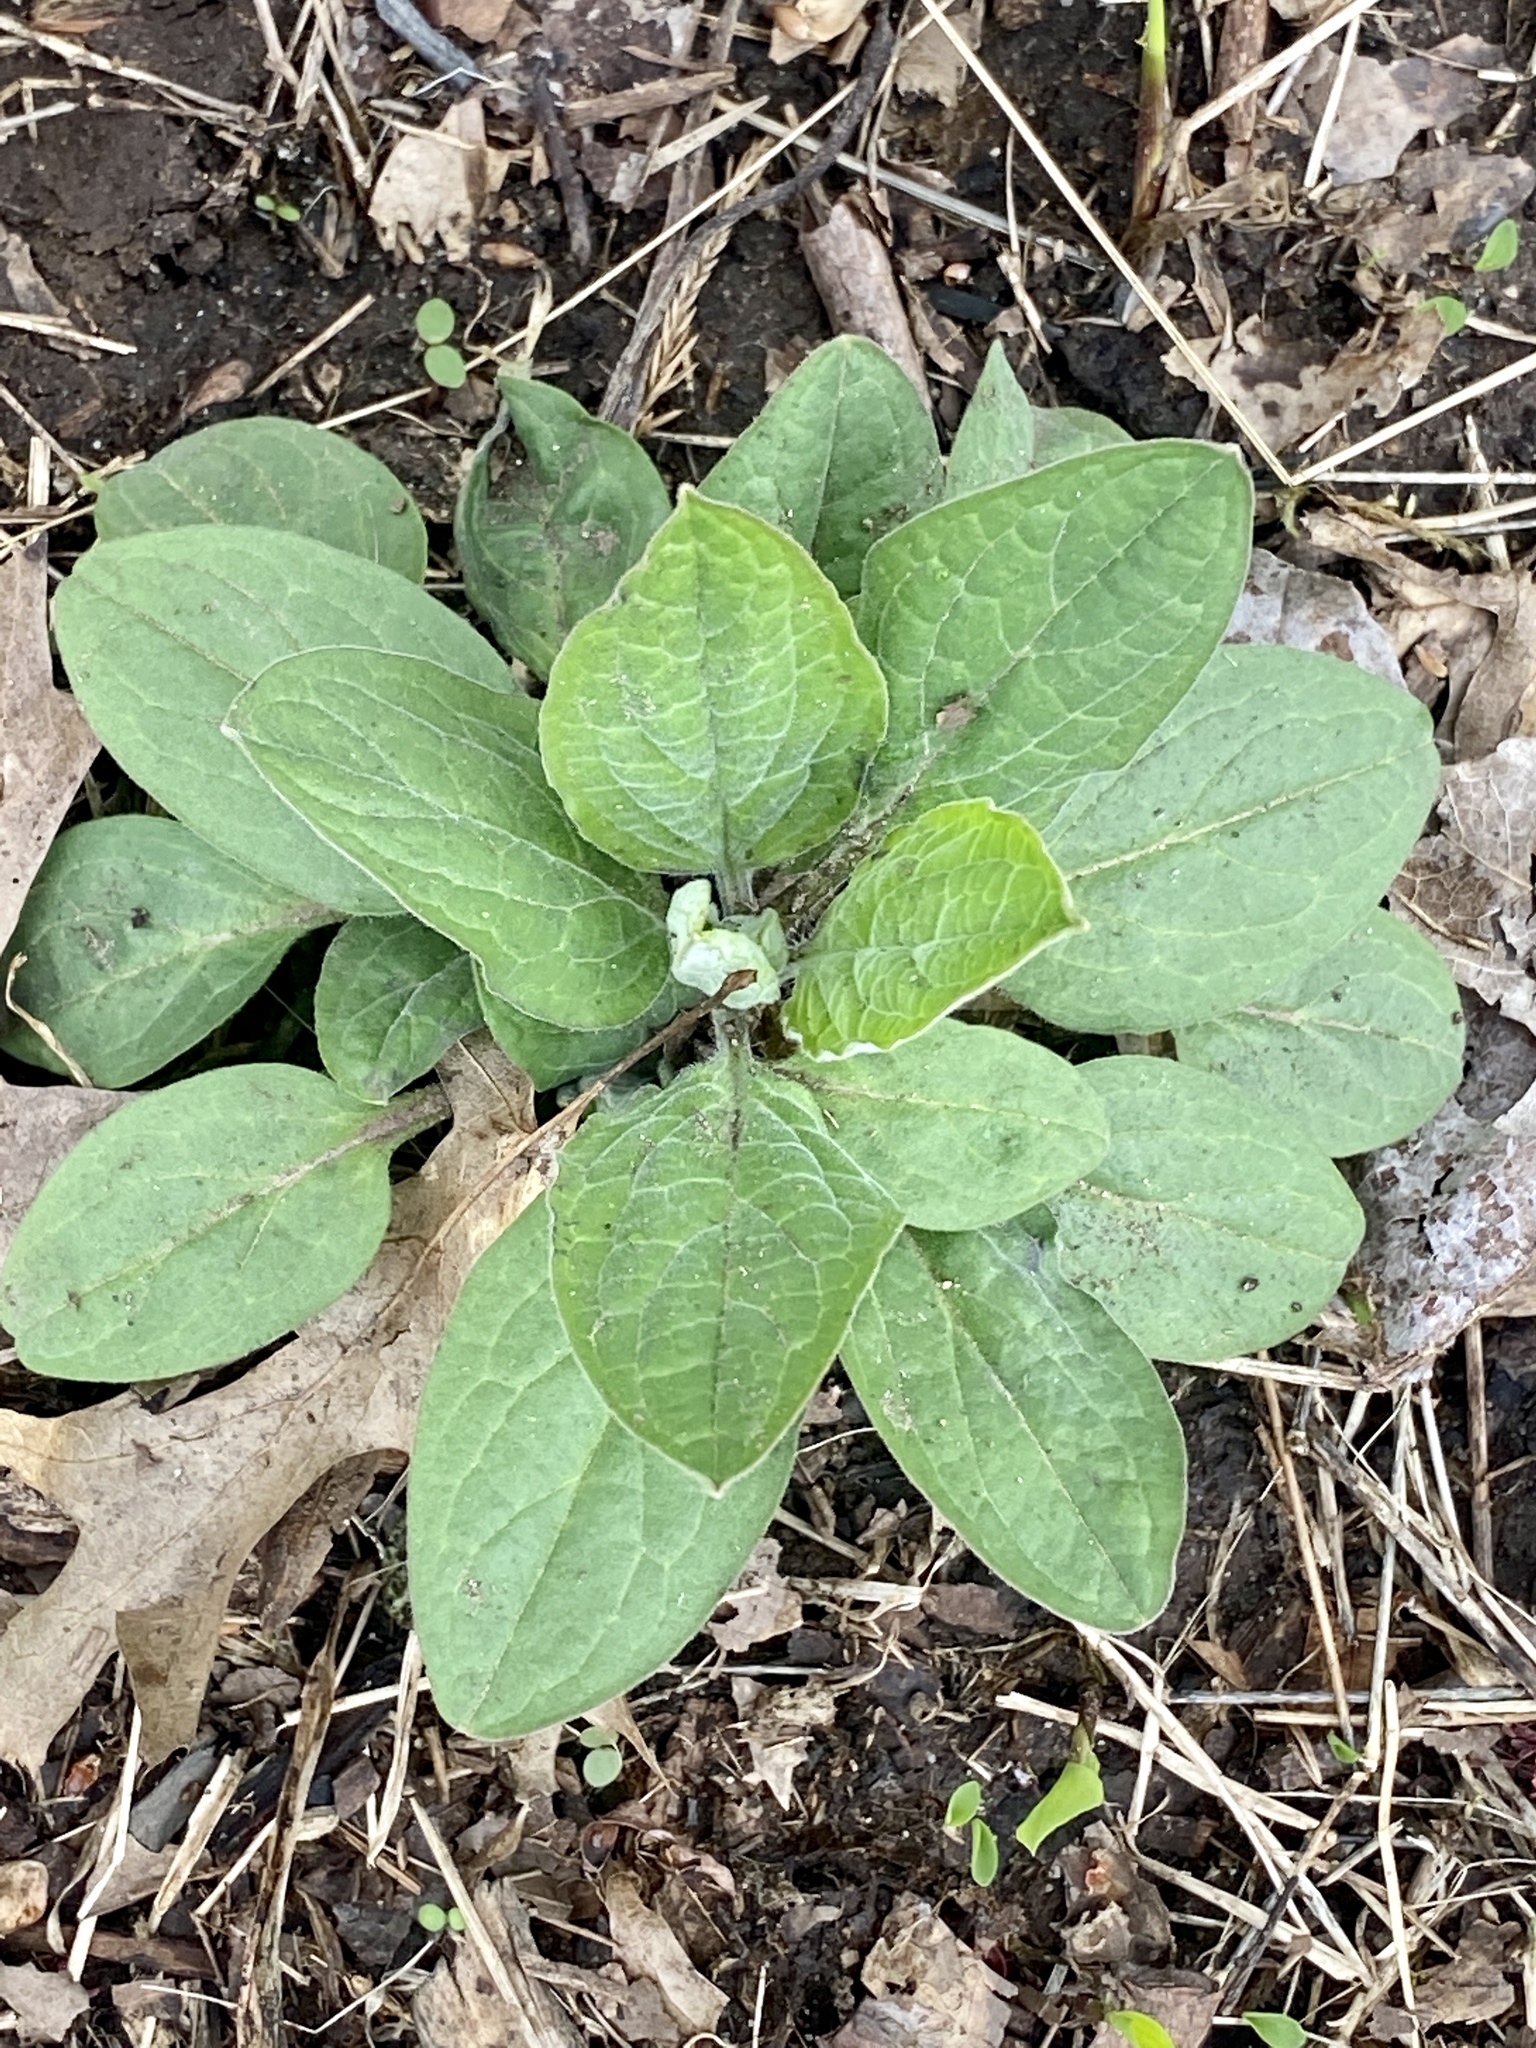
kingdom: Plantae
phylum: Tracheophyta
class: Magnoliopsida
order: Boraginales
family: Boraginaceae
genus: Hackelia
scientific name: Hackelia virginiana
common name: Beggar's-lice
